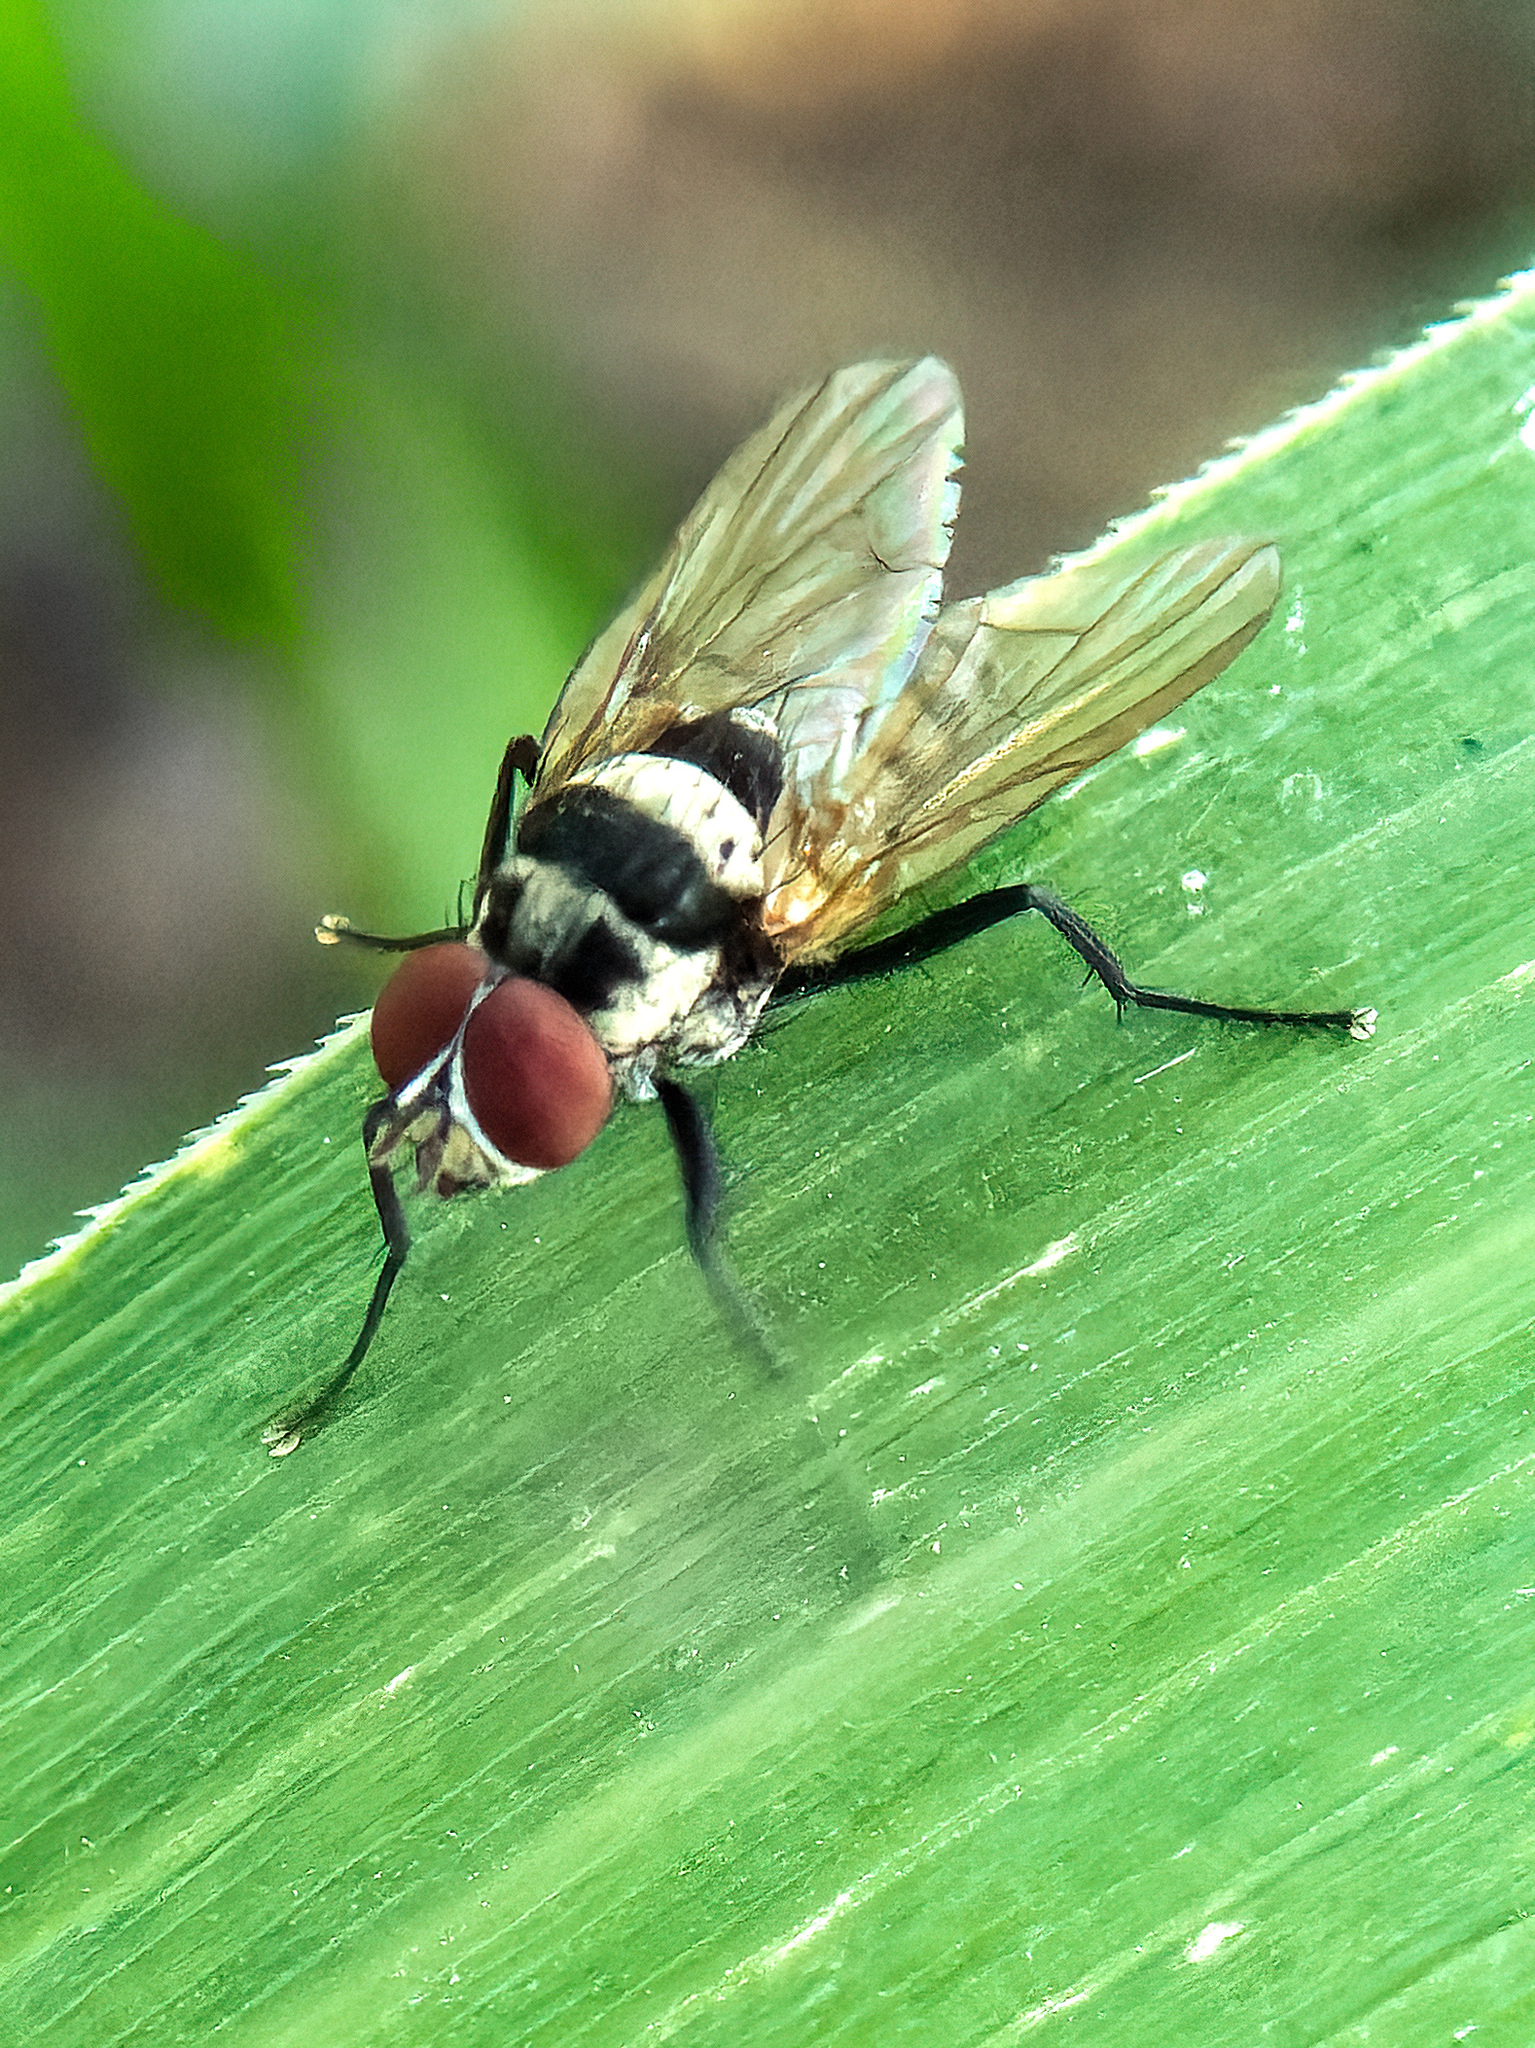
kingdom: Animalia
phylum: Arthropoda
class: Insecta
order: Diptera
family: Anthomyiidae
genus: Anthomyia
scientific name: Anthomyia oculifera
